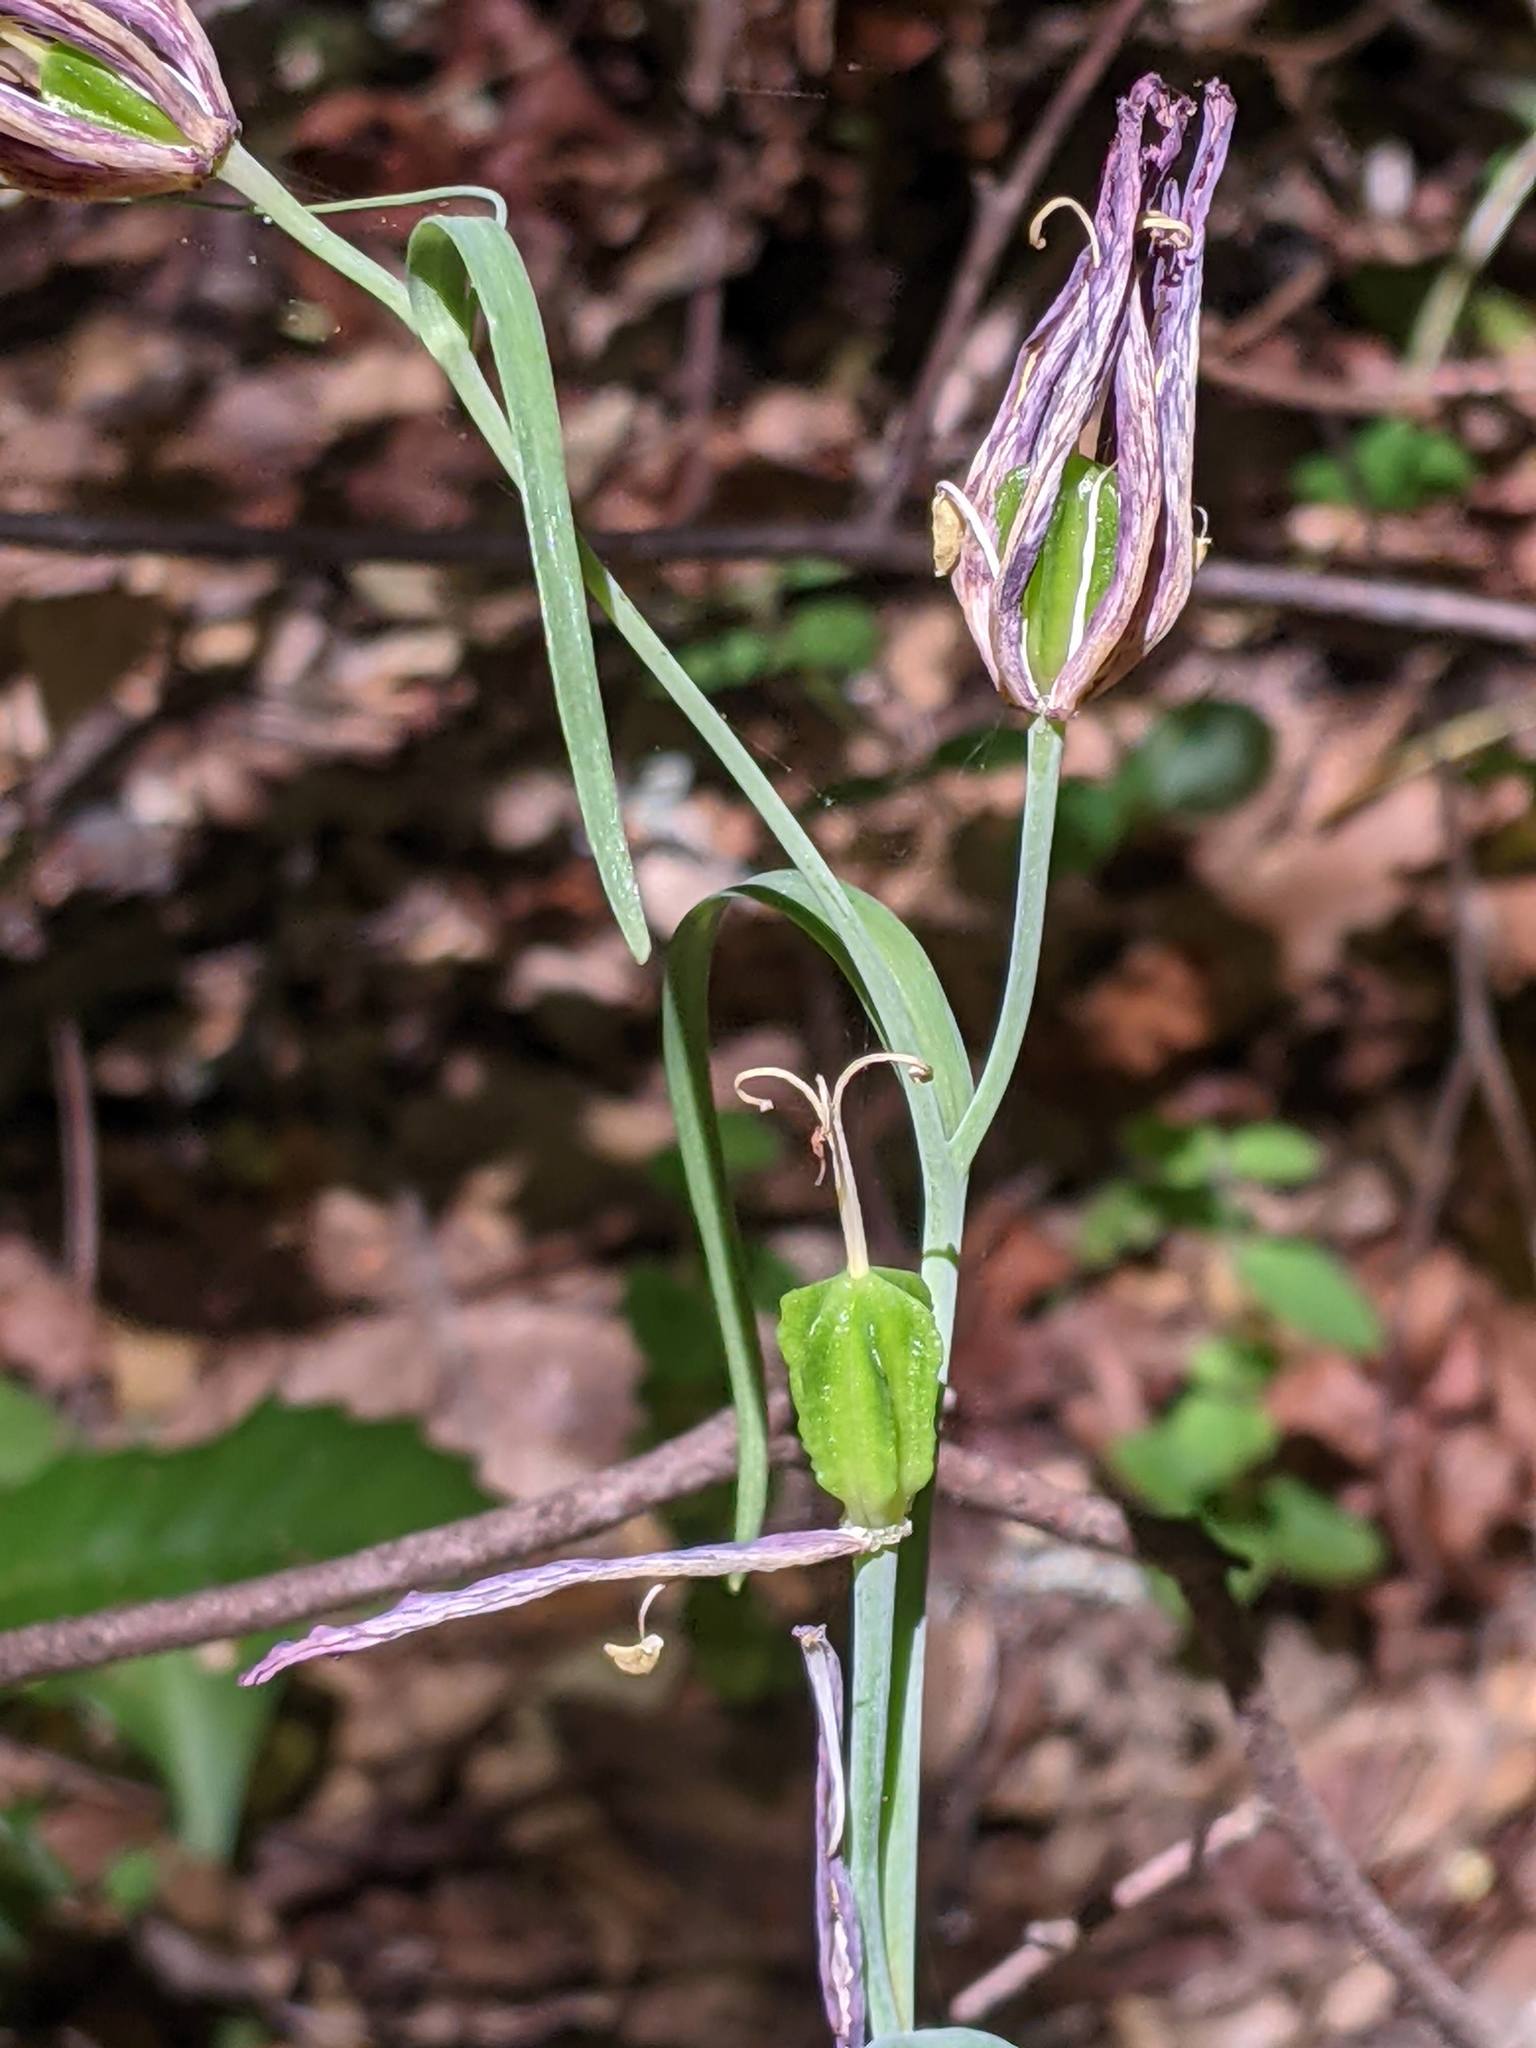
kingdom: Plantae
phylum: Tracheophyta
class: Liliopsida
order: Liliales
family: Liliaceae
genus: Fritillaria
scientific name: Fritillaria affinis
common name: Ojai fritillary
